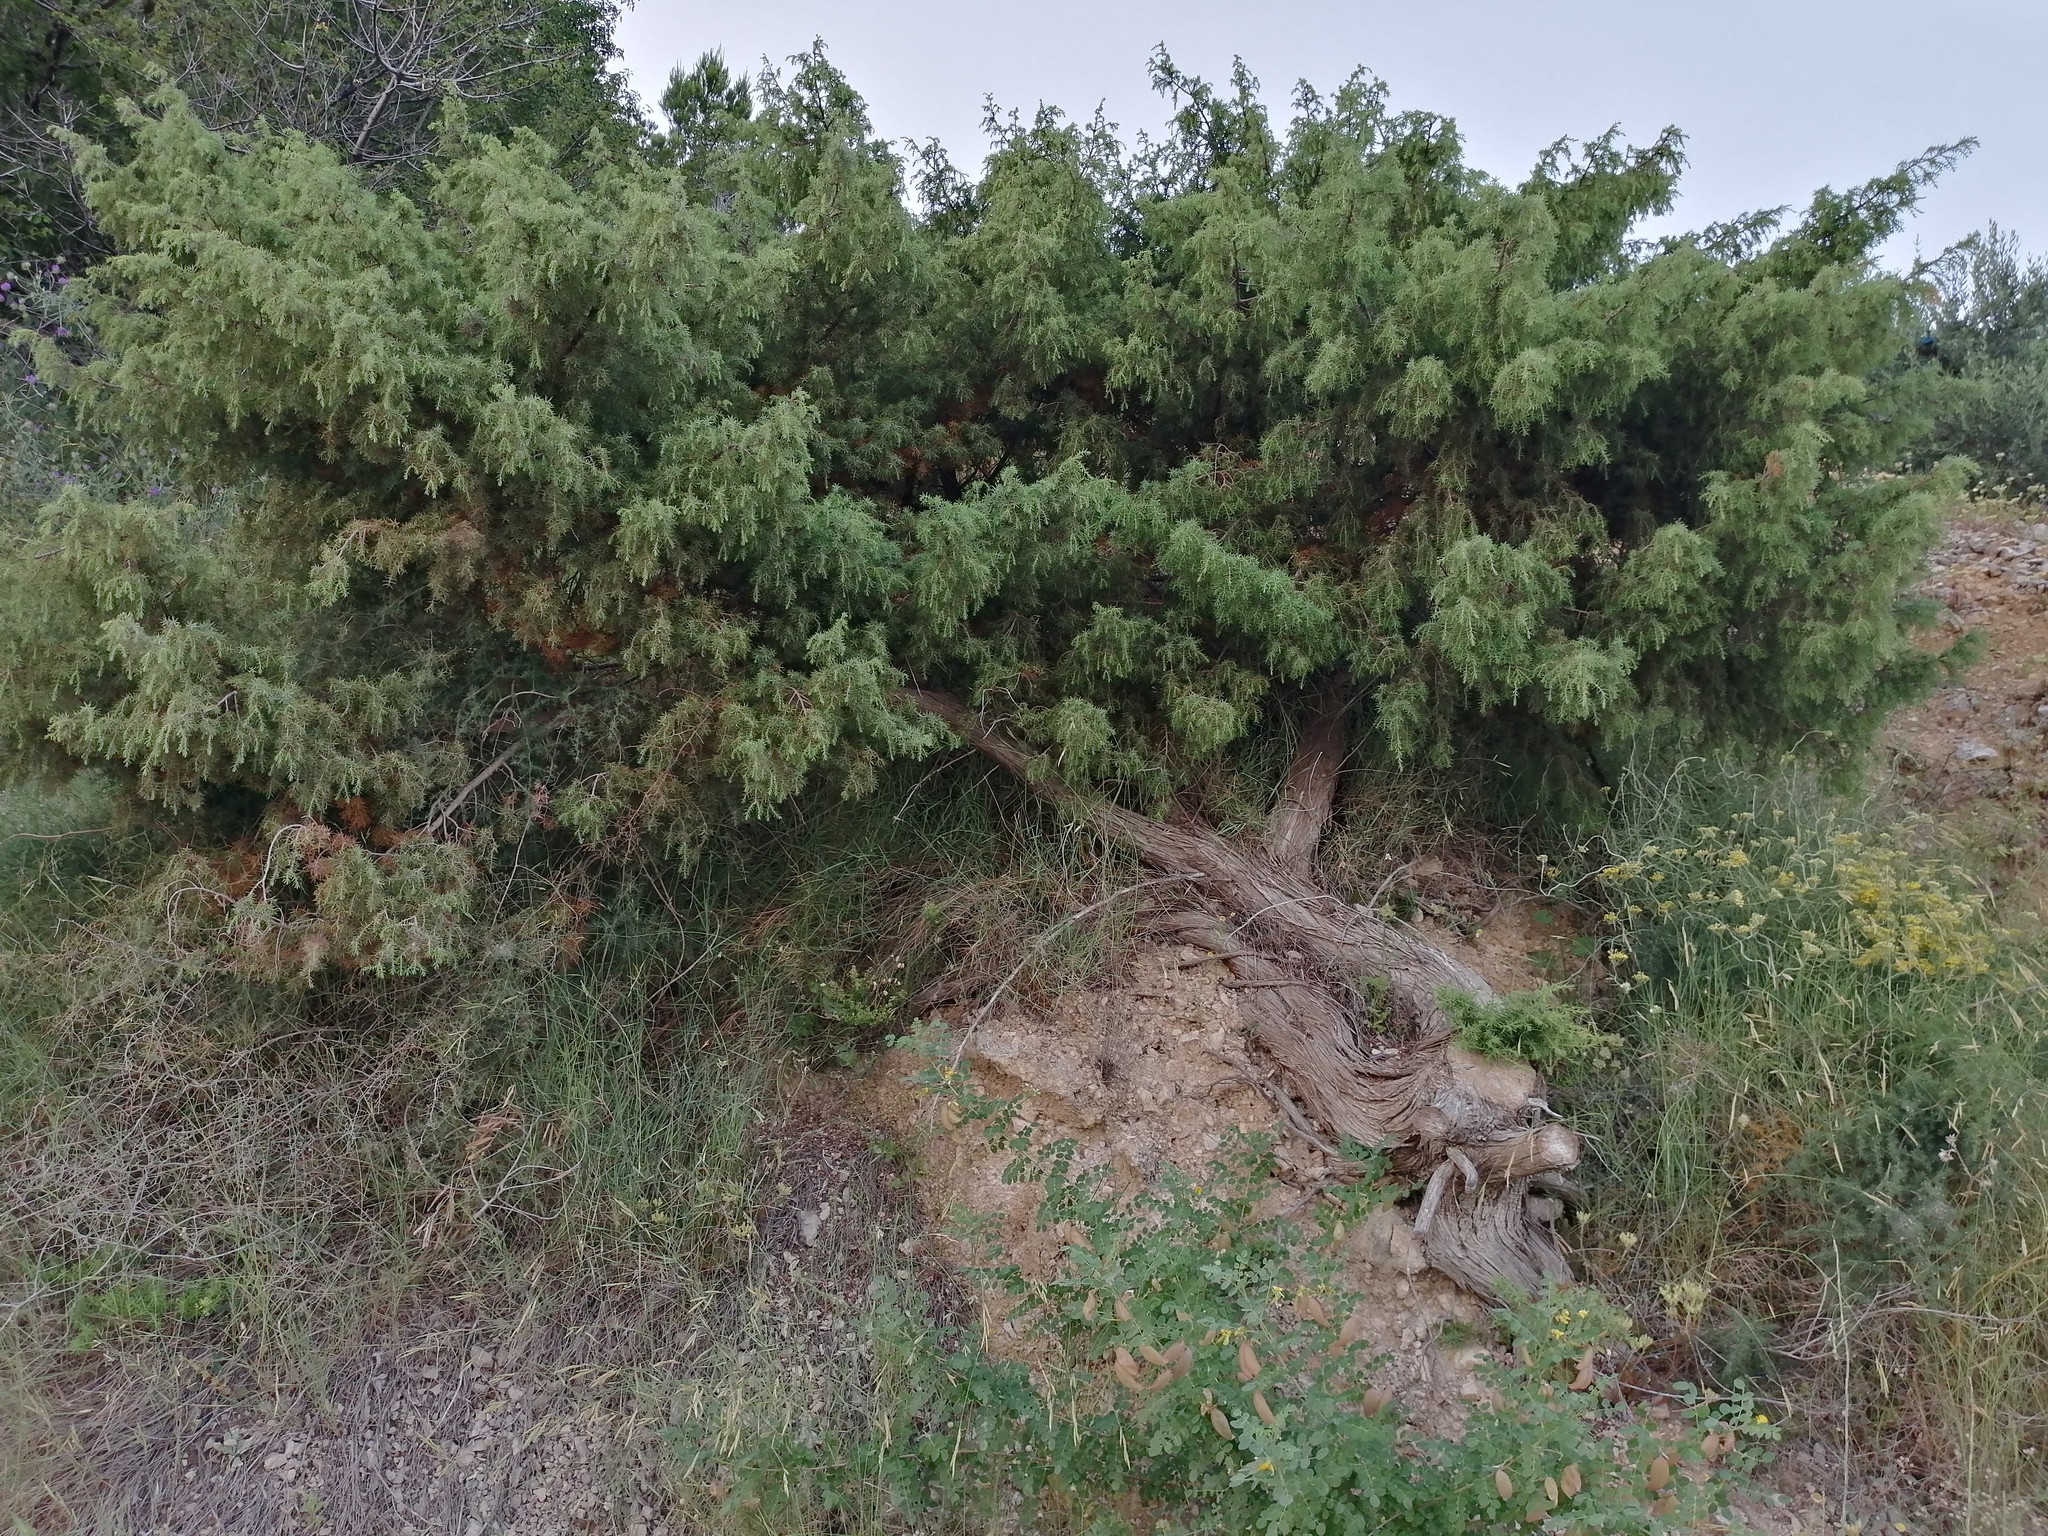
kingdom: Plantae
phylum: Tracheophyta
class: Pinopsida
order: Pinales
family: Cupressaceae
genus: Juniperus
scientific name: Juniperus oxycedrus
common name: Prickly juniper
